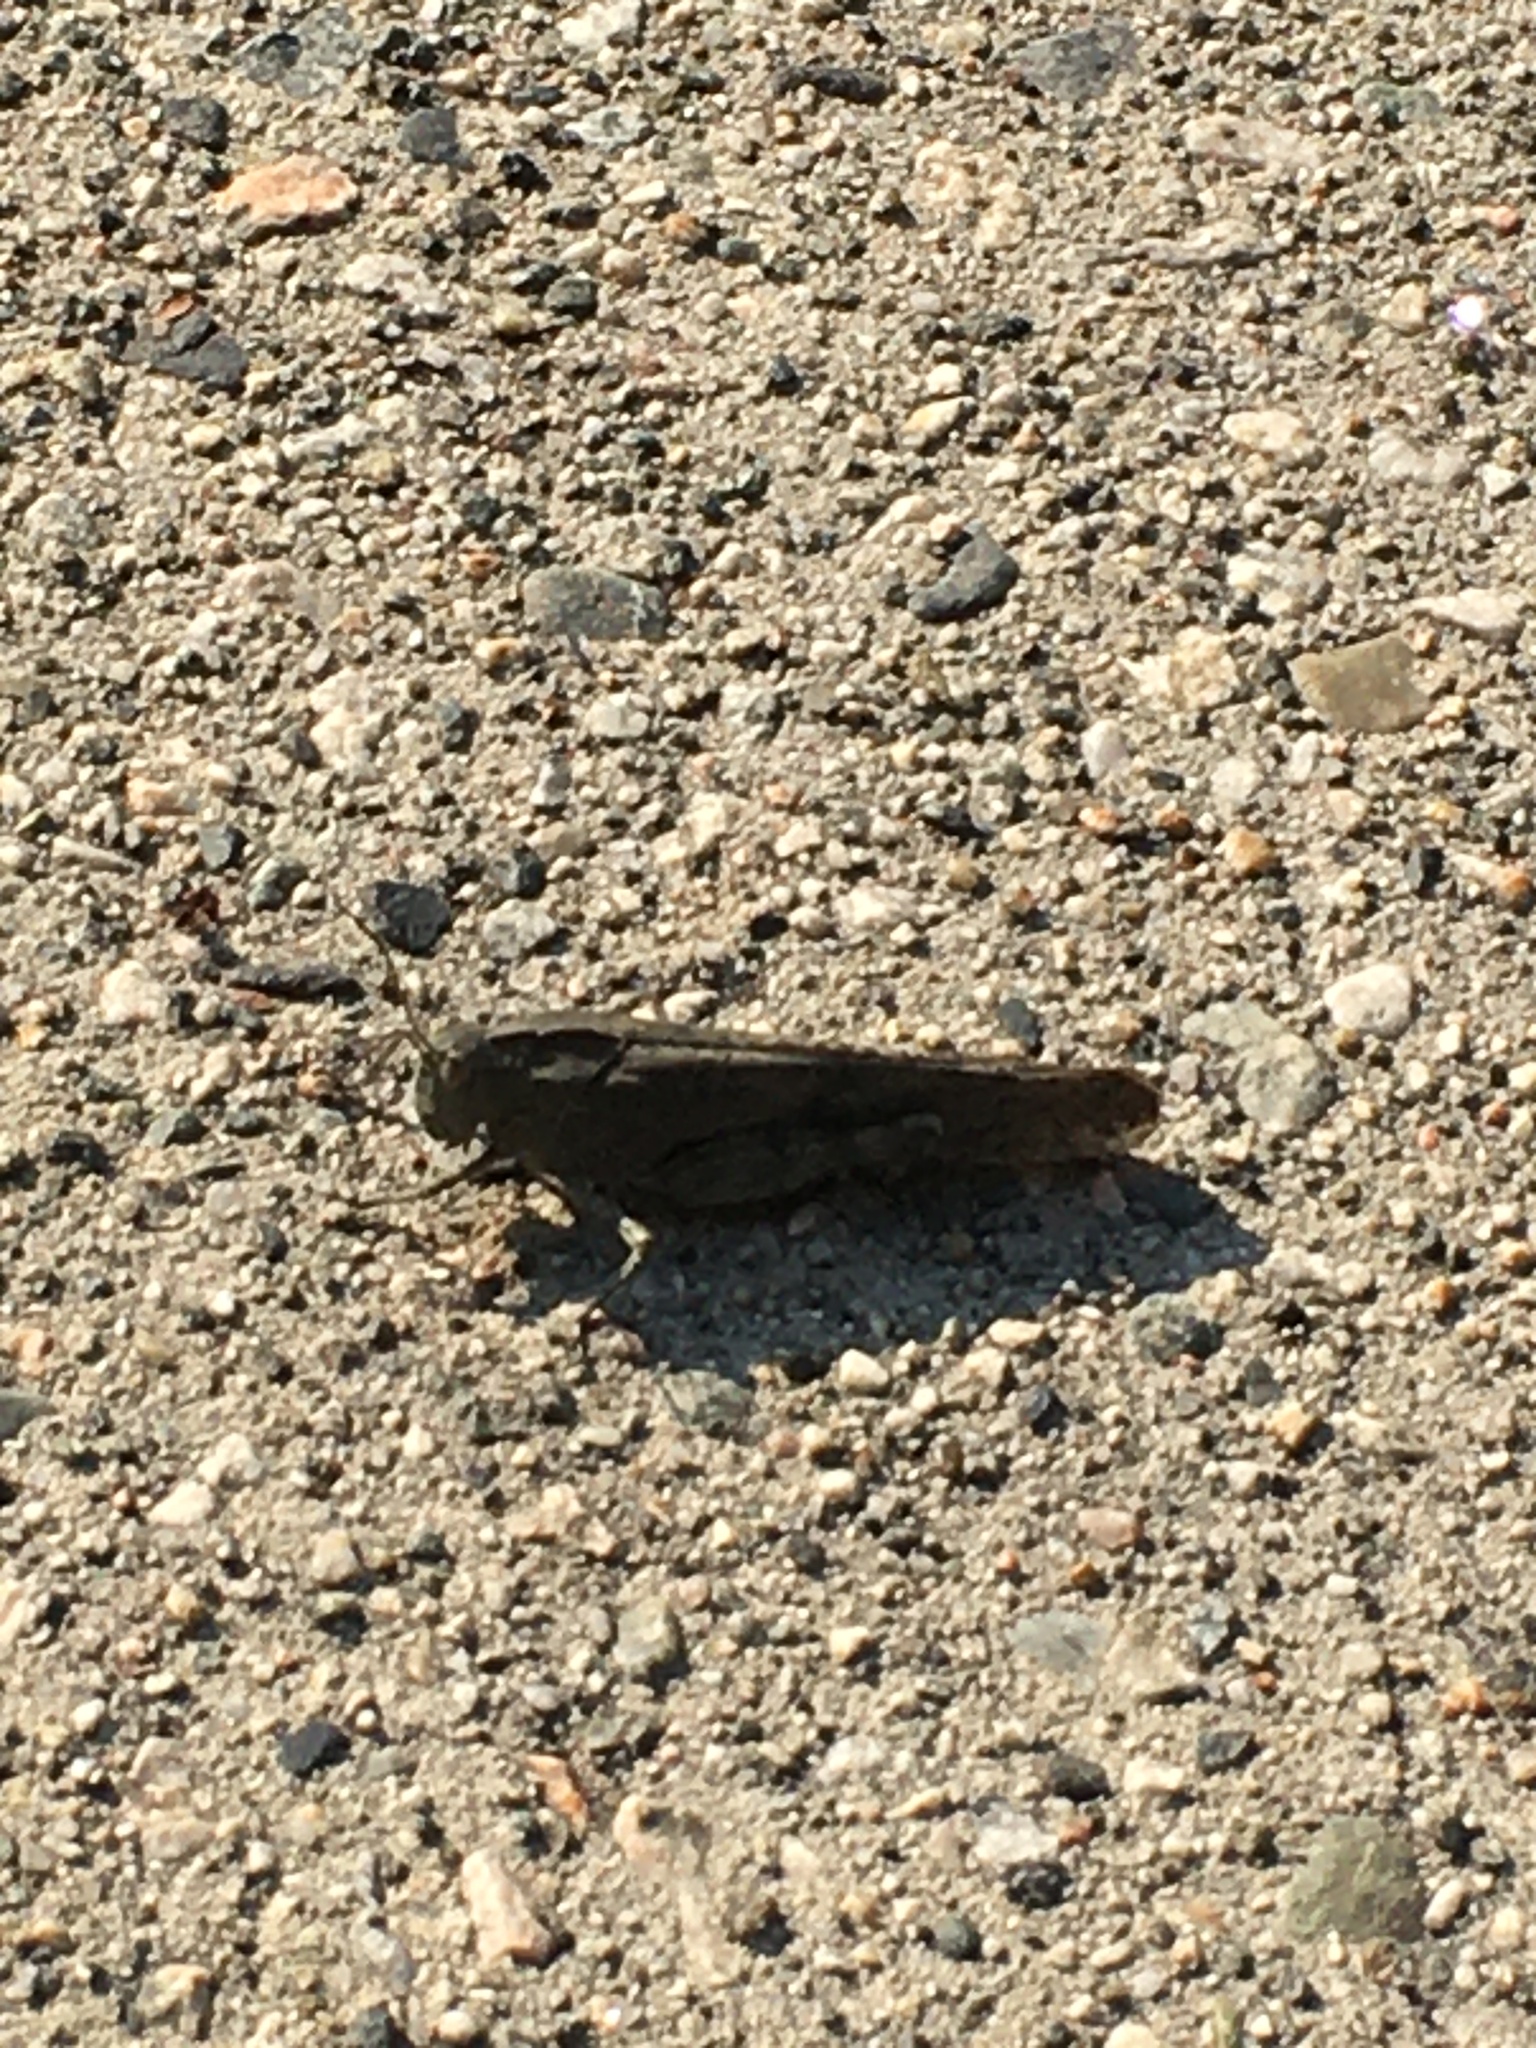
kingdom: Animalia
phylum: Arthropoda
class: Insecta
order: Orthoptera
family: Acrididae
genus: Dissosteira
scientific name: Dissosteira carolina
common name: Carolina grasshopper
